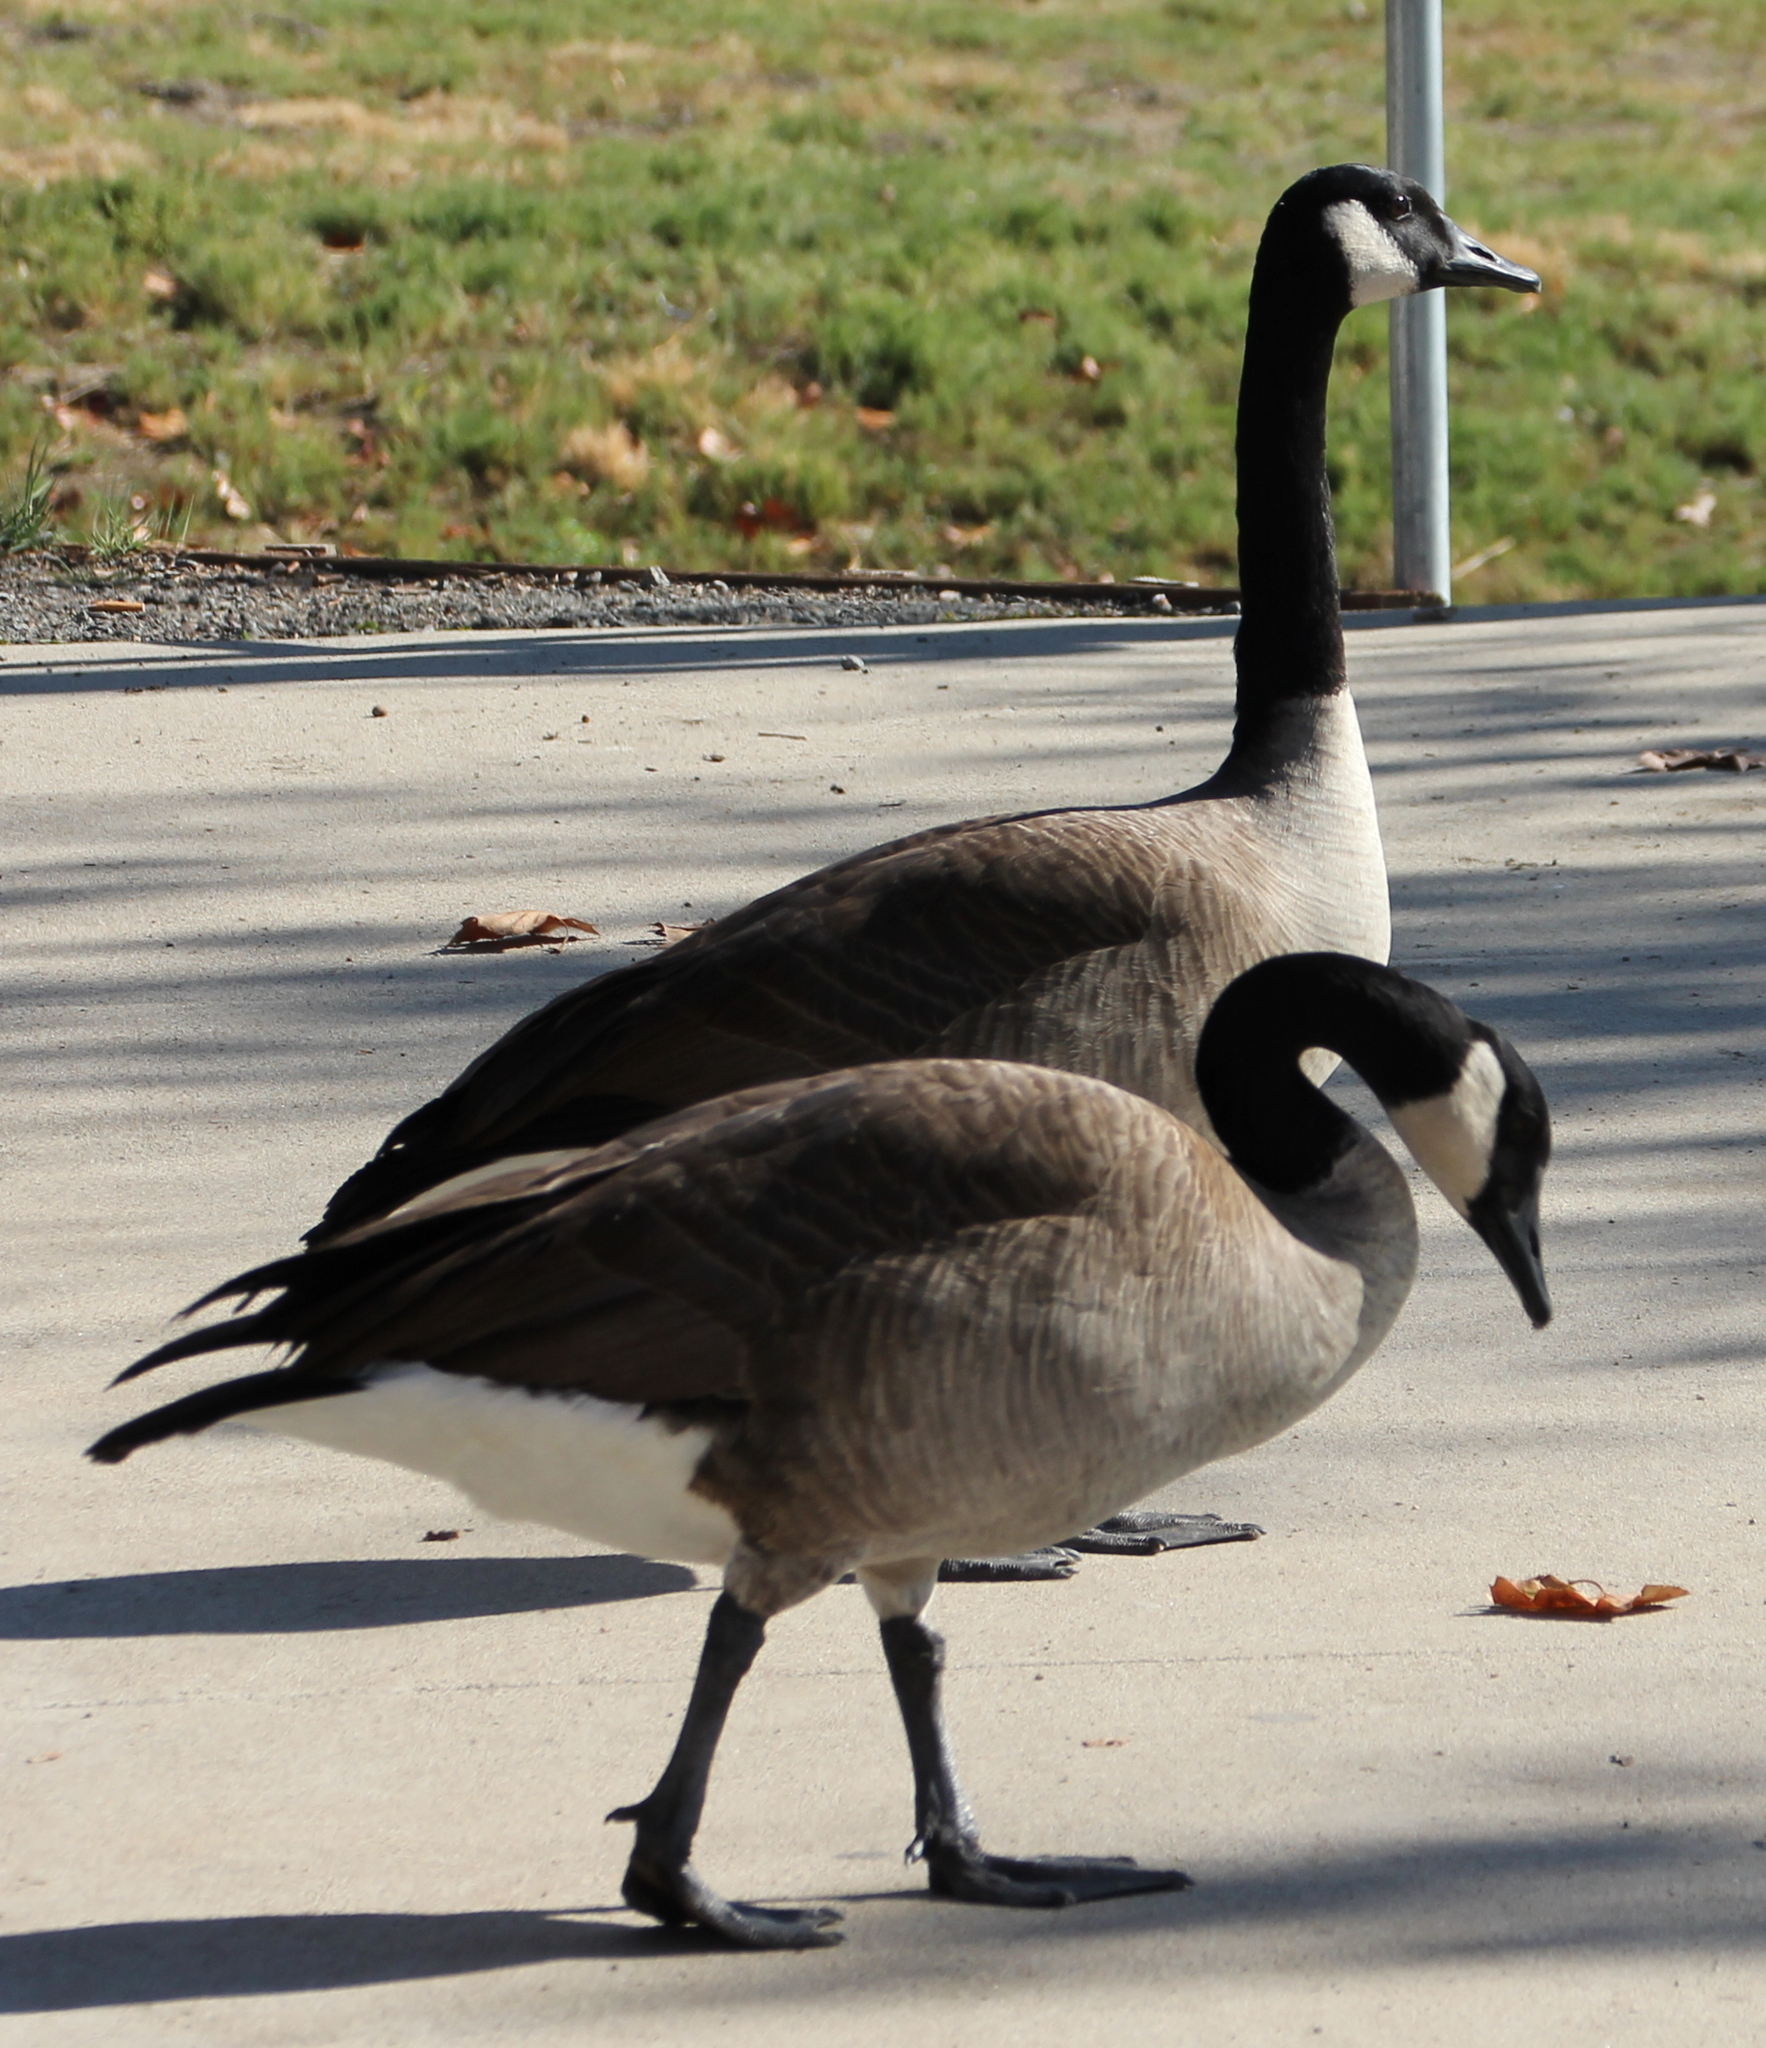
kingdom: Animalia
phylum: Chordata
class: Aves
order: Anseriformes
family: Anatidae
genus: Branta
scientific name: Branta canadensis
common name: Canada goose
